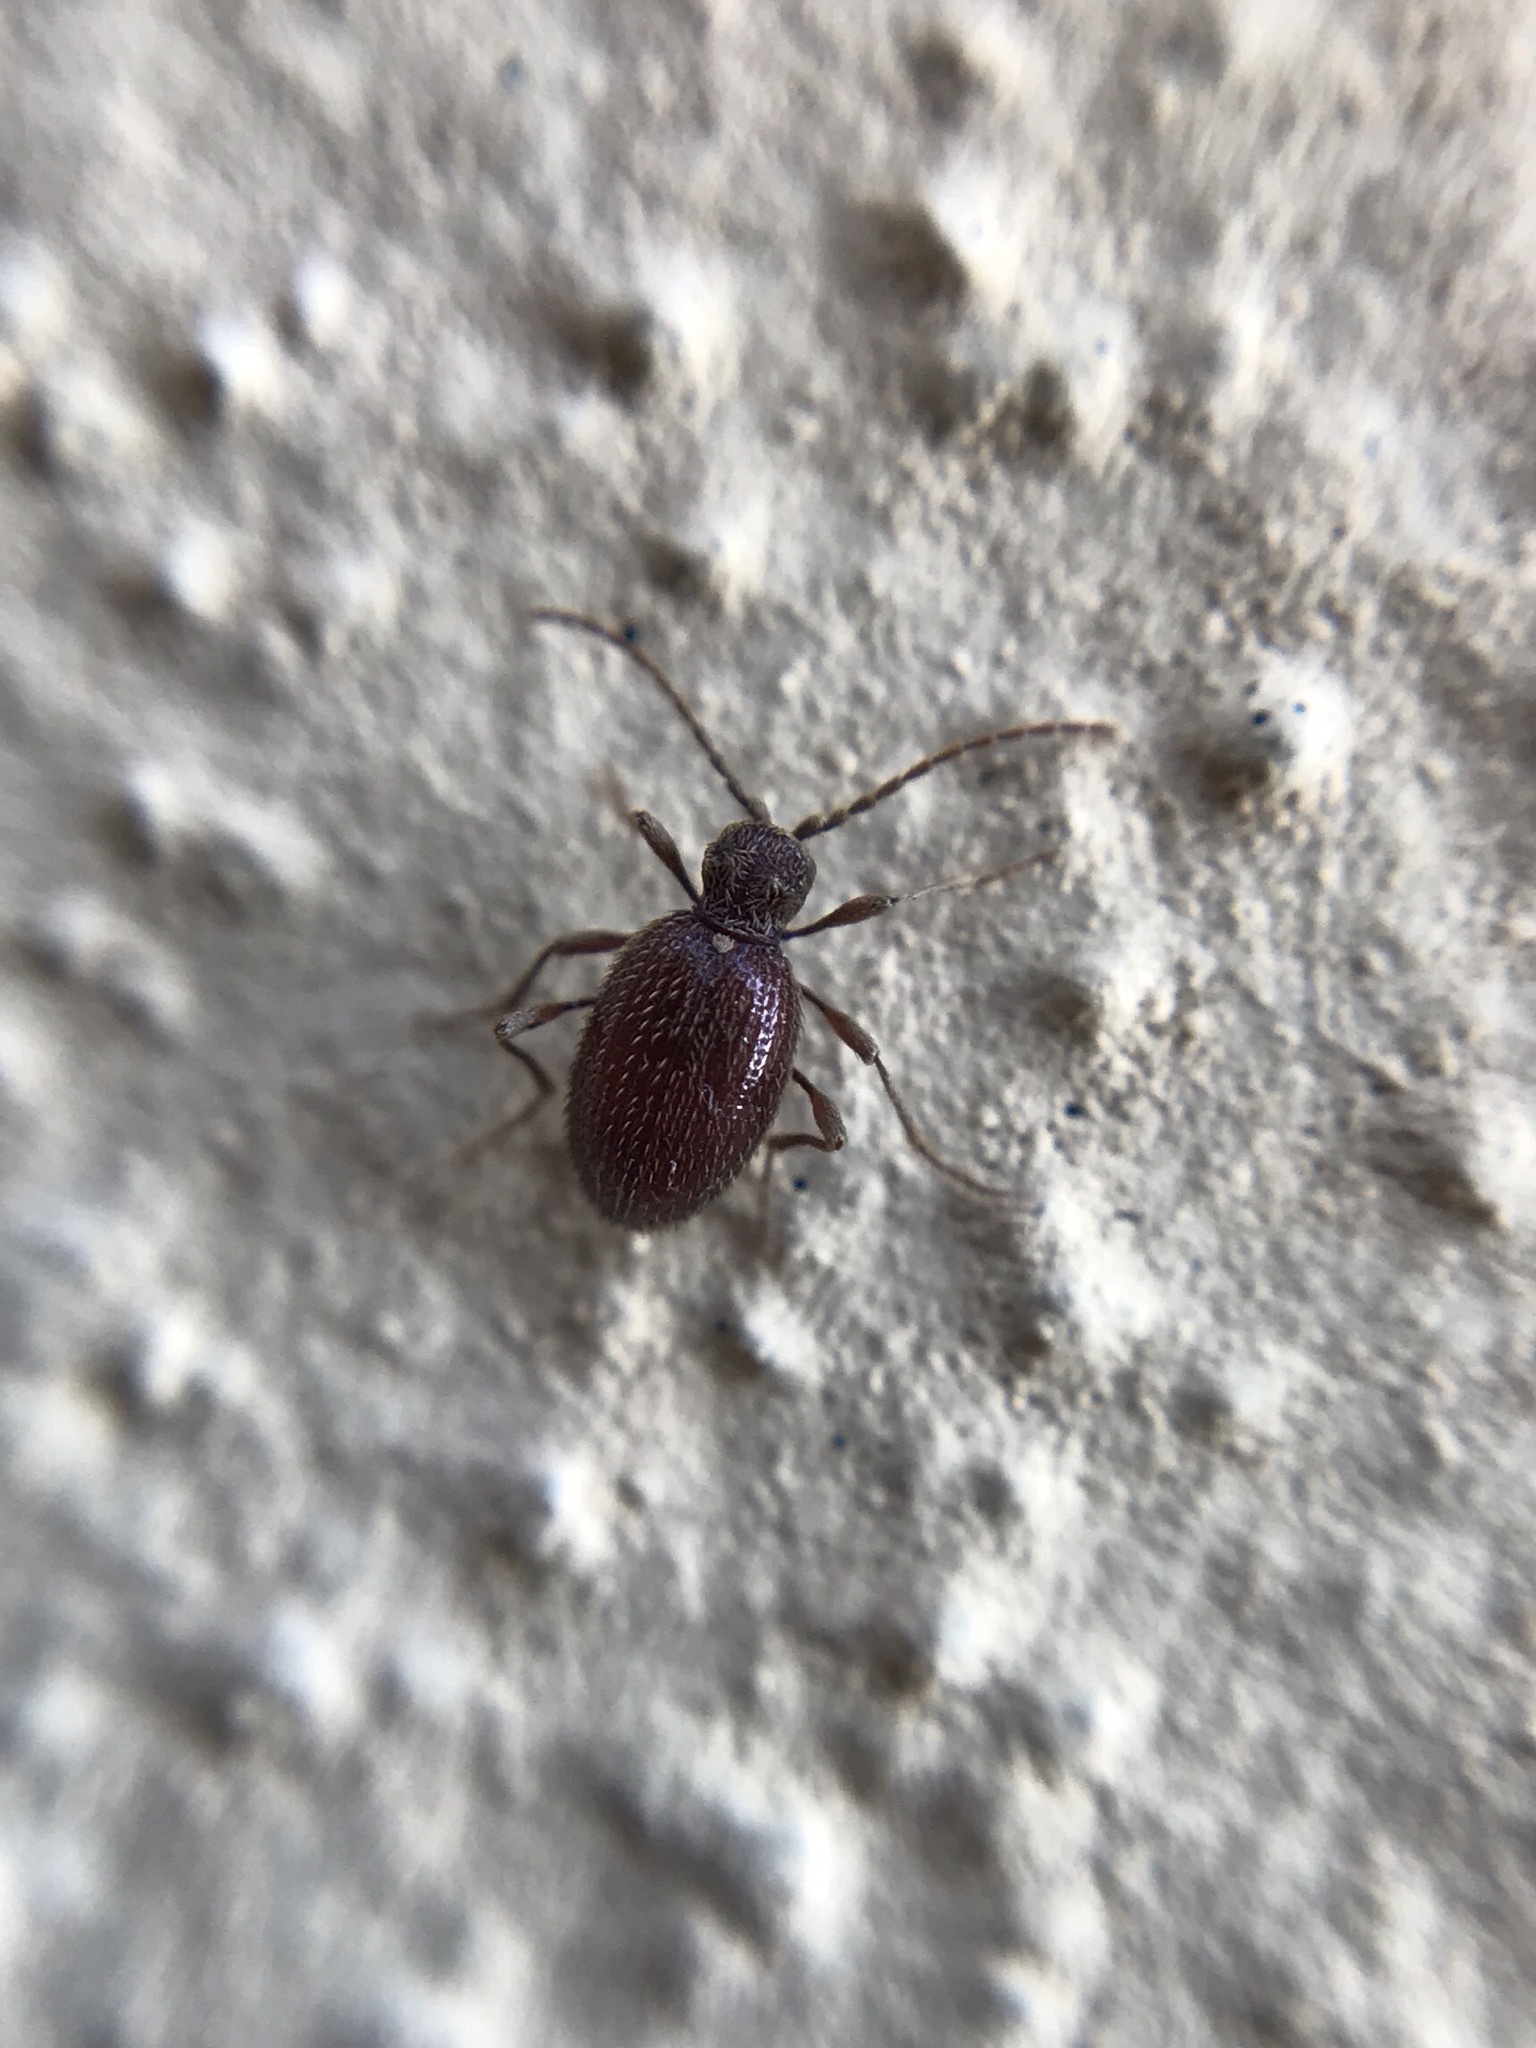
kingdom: Animalia
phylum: Arthropoda
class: Insecta
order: Coleoptera
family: Ptinidae
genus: Ptinus
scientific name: Ptinus latro
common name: Warehouse spider beetle
